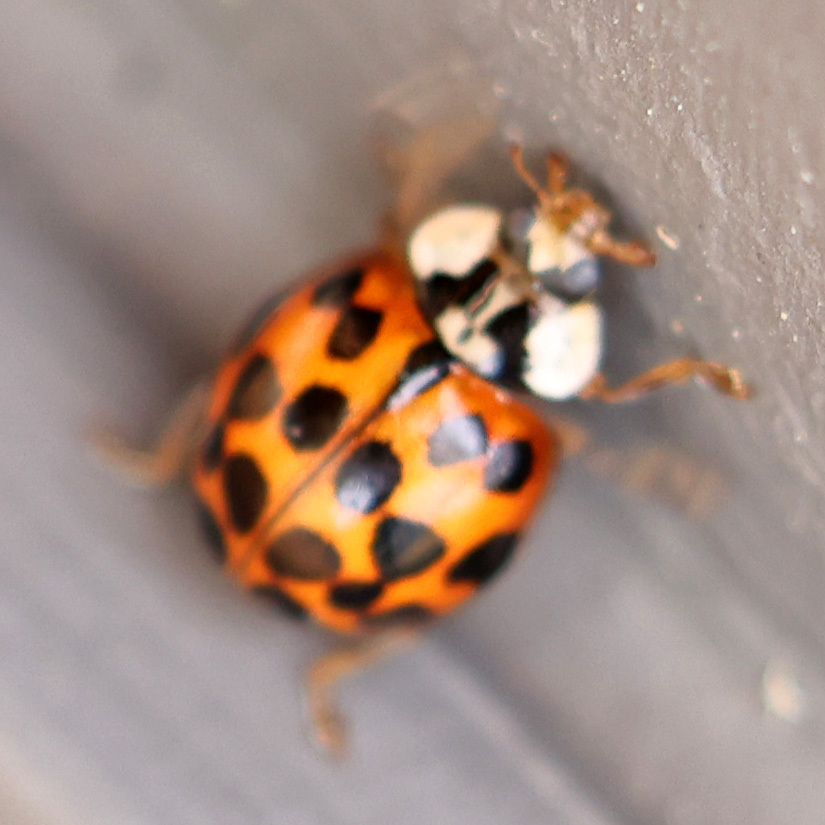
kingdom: Animalia
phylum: Arthropoda
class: Insecta
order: Coleoptera
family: Coccinellidae
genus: Harmonia
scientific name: Harmonia axyridis
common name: Harlequin ladybird
